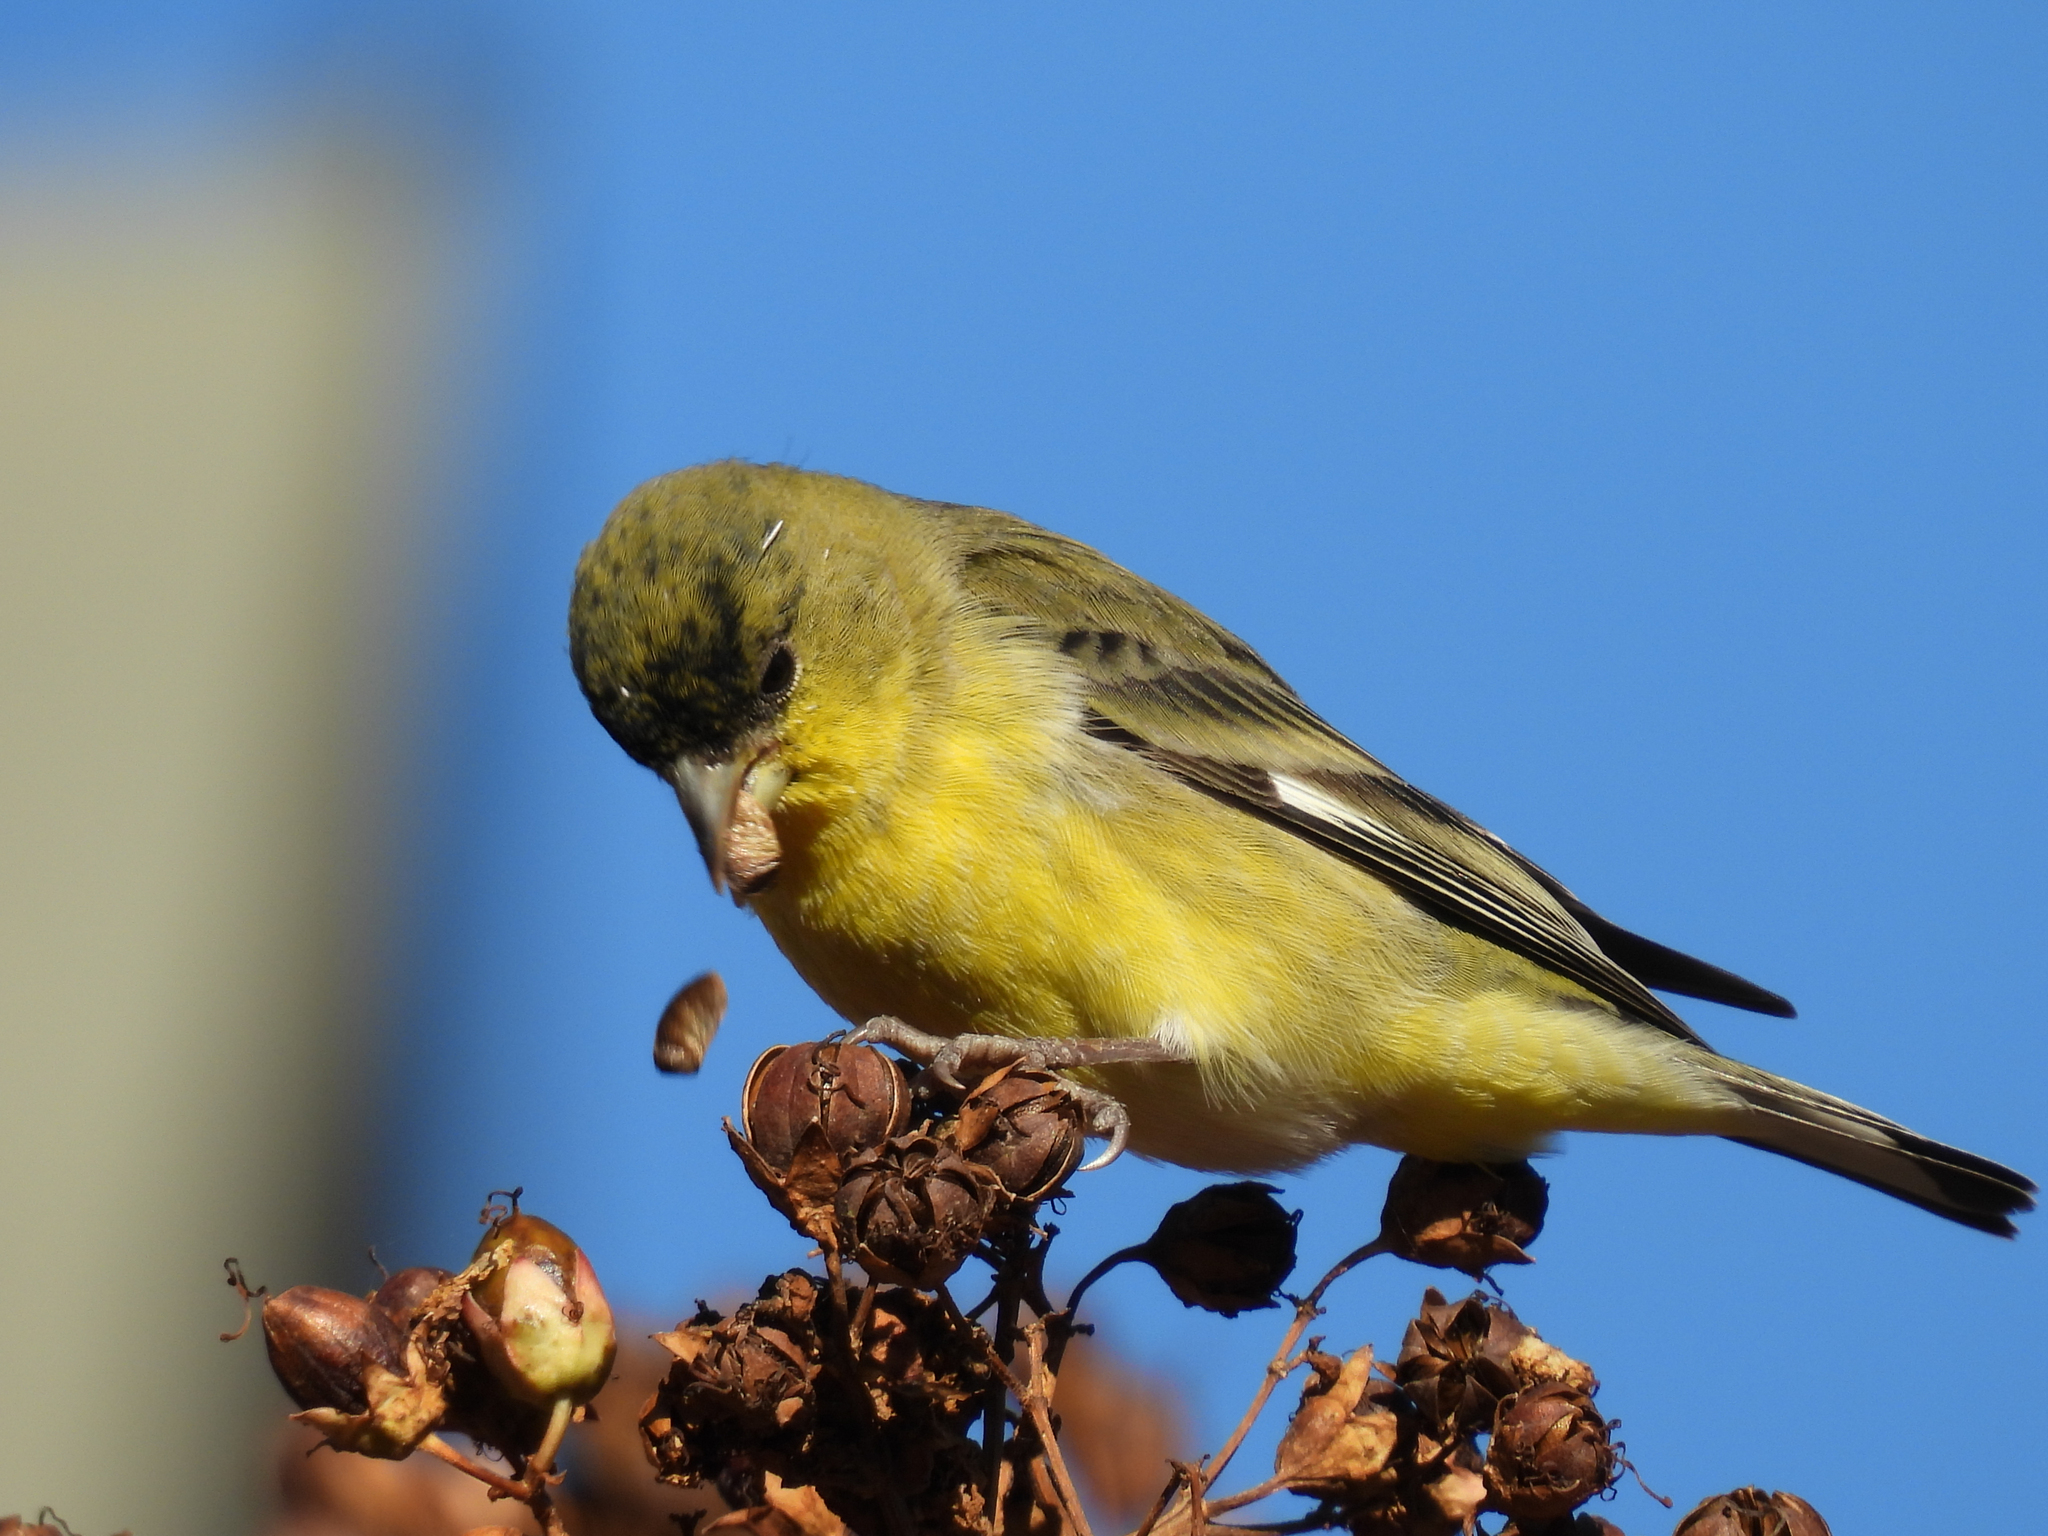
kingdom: Animalia
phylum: Chordata
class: Aves
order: Passeriformes
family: Fringillidae
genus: Spinus
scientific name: Spinus psaltria
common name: Lesser goldfinch
